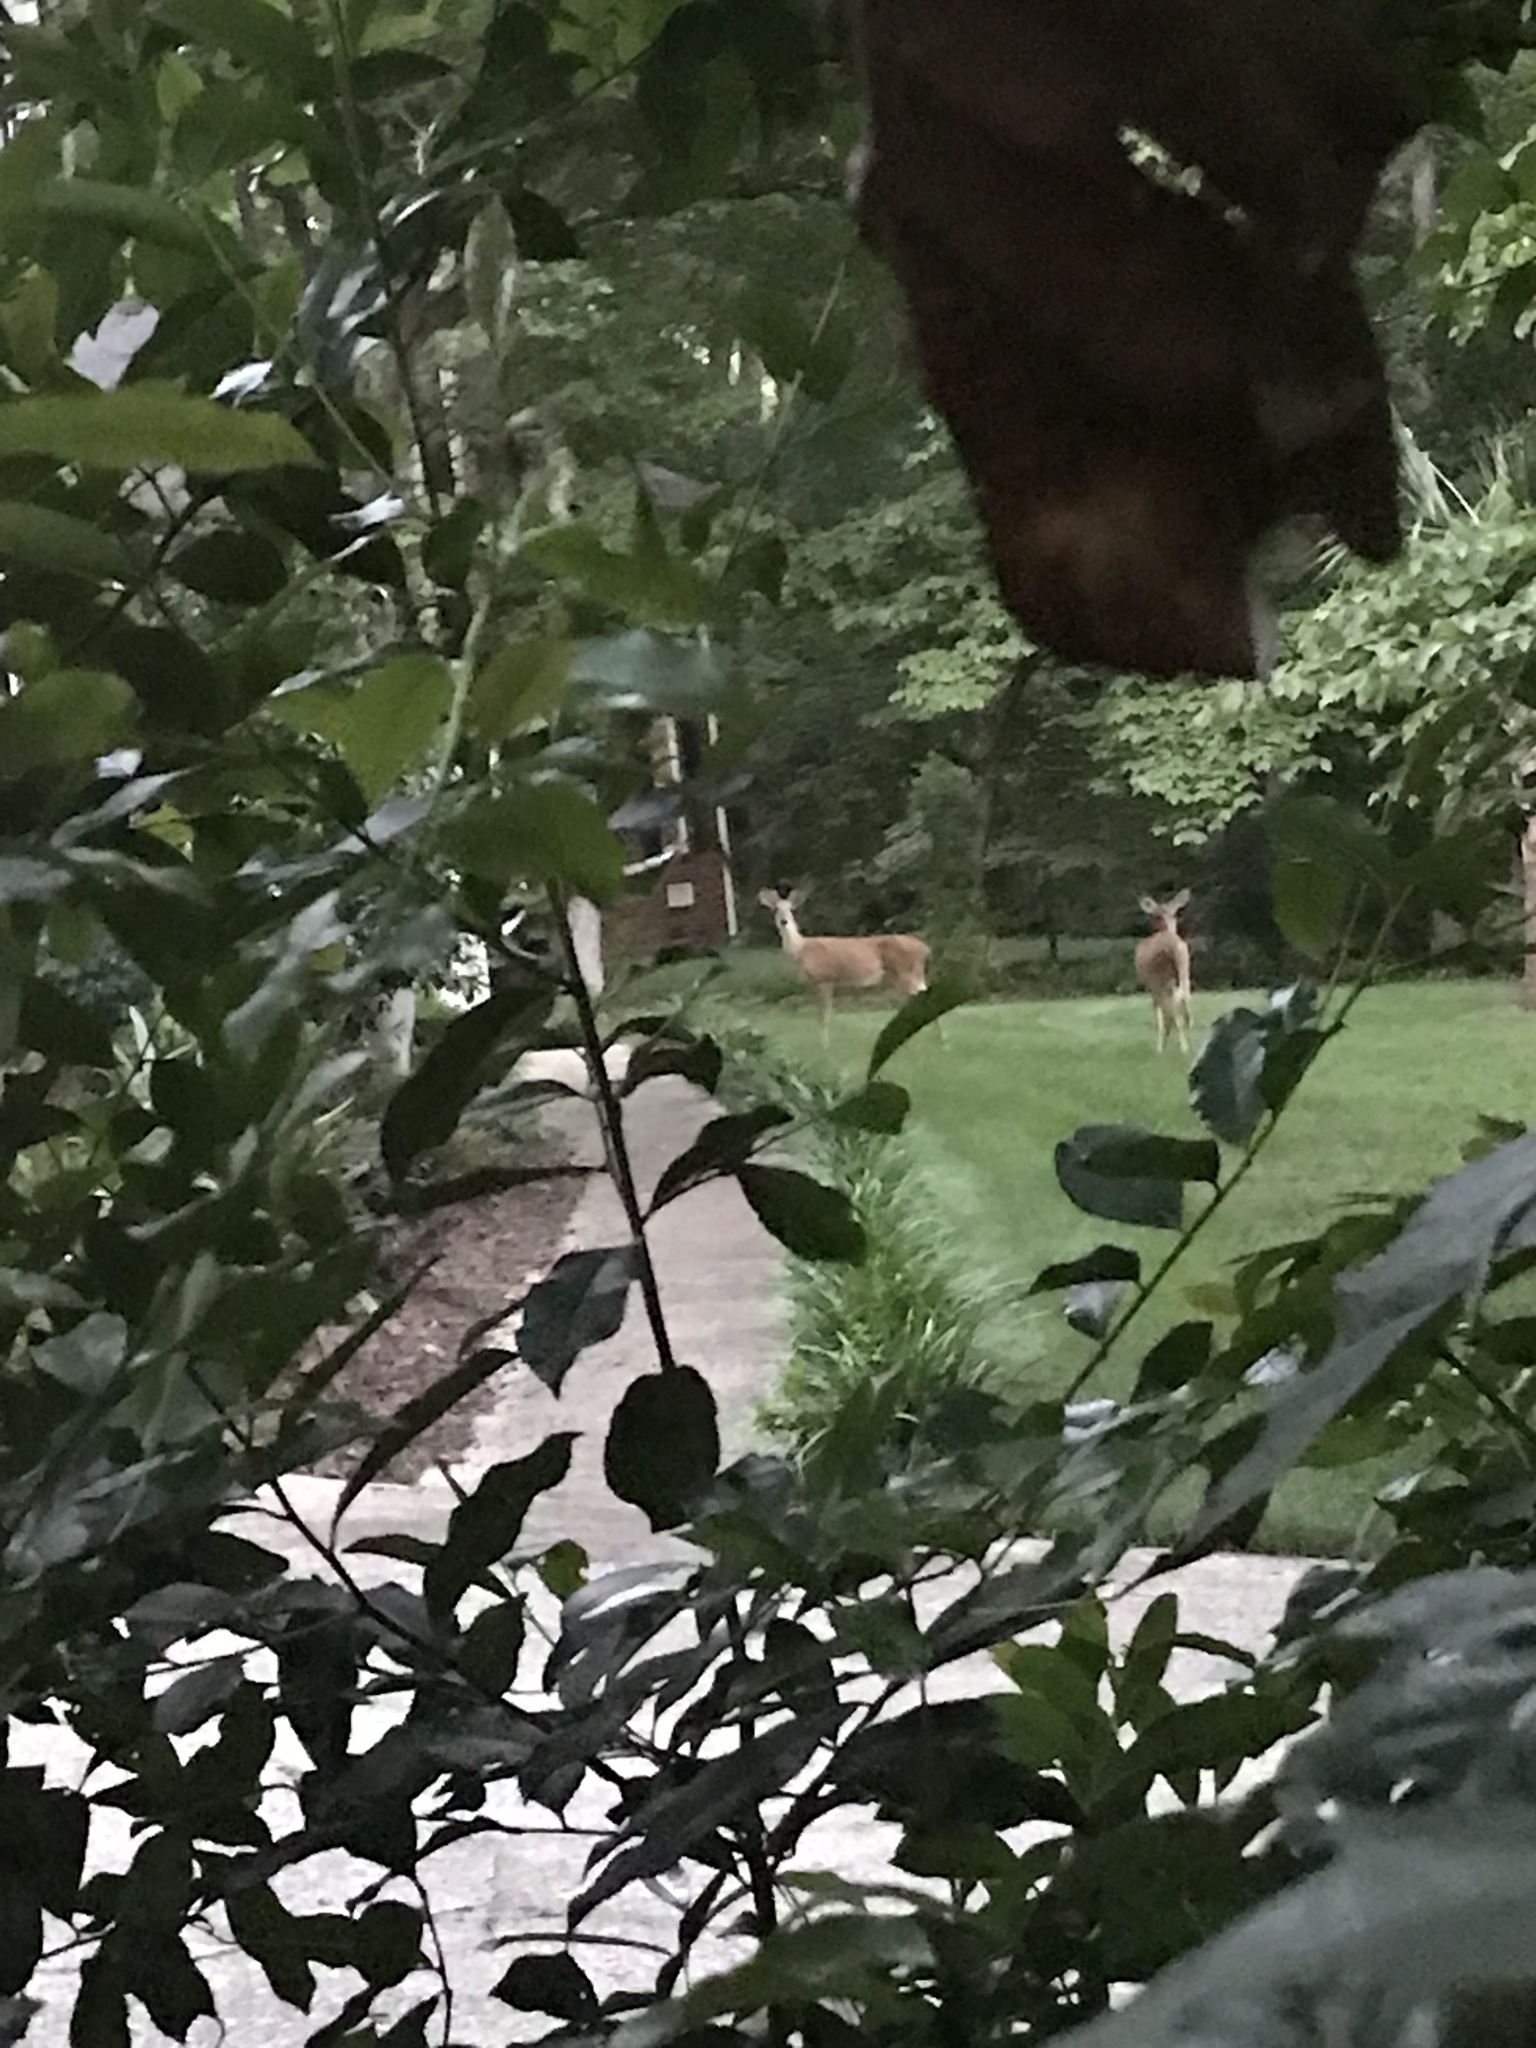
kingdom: Animalia
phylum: Chordata
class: Mammalia
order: Artiodactyla
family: Cervidae
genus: Odocoileus
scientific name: Odocoileus virginianus
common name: White-tailed deer
